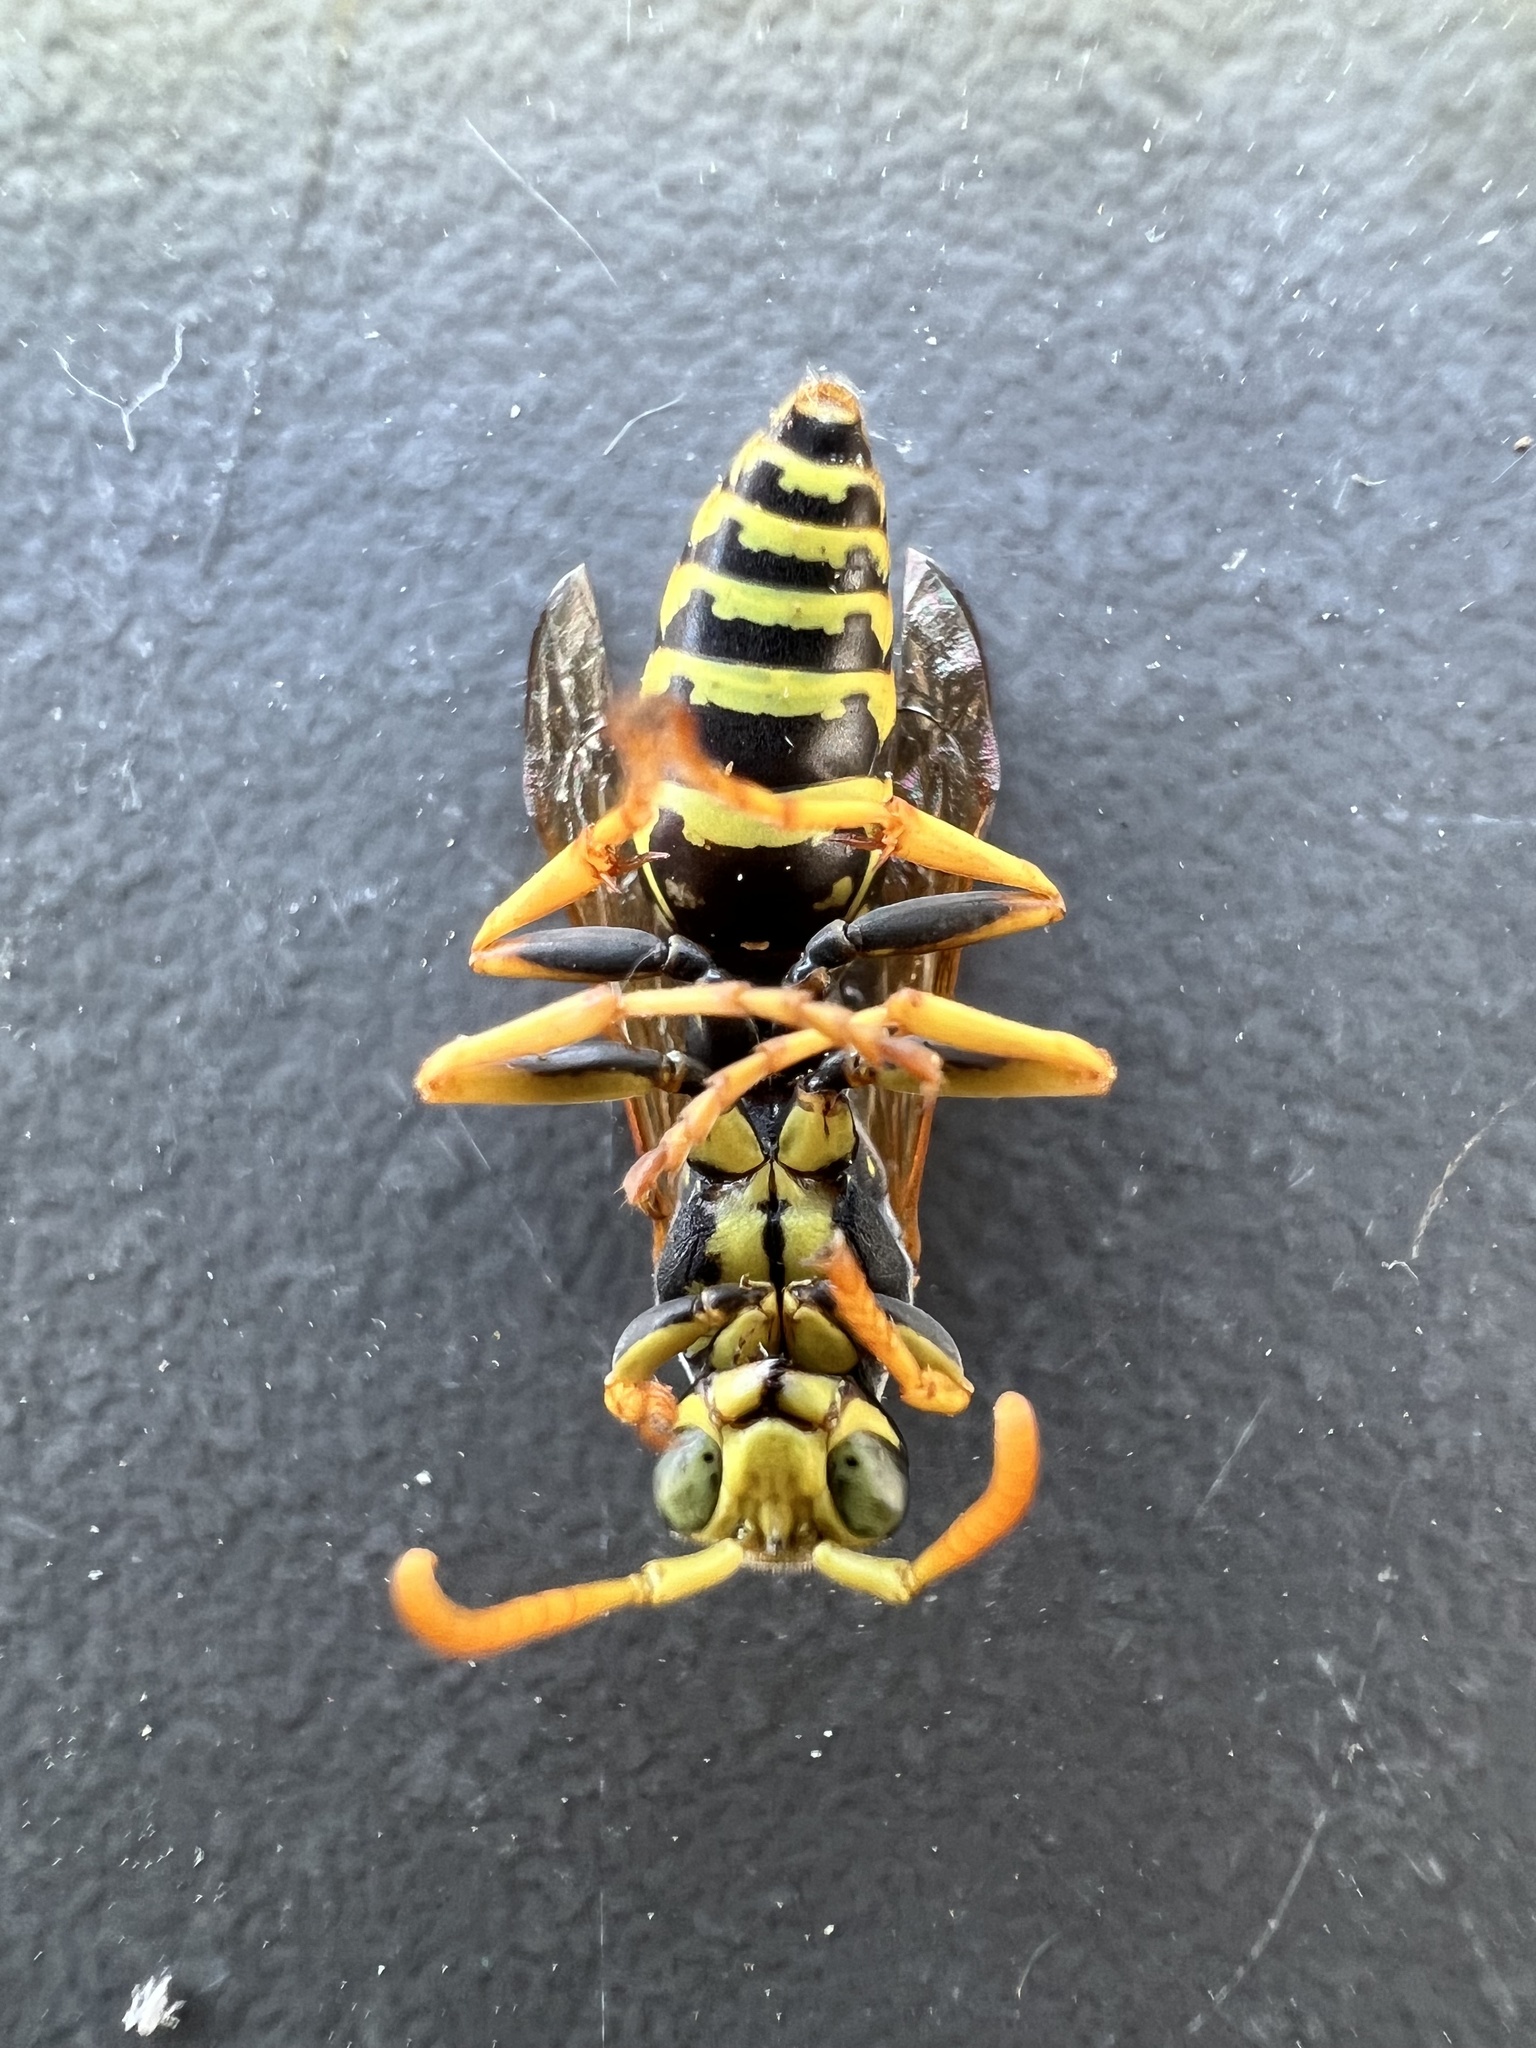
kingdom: Animalia
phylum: Arthropoda
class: Insecta
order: Hymenoptera
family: Eumenidae
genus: Polistes
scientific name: Polistes dominula
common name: Paper wasp
